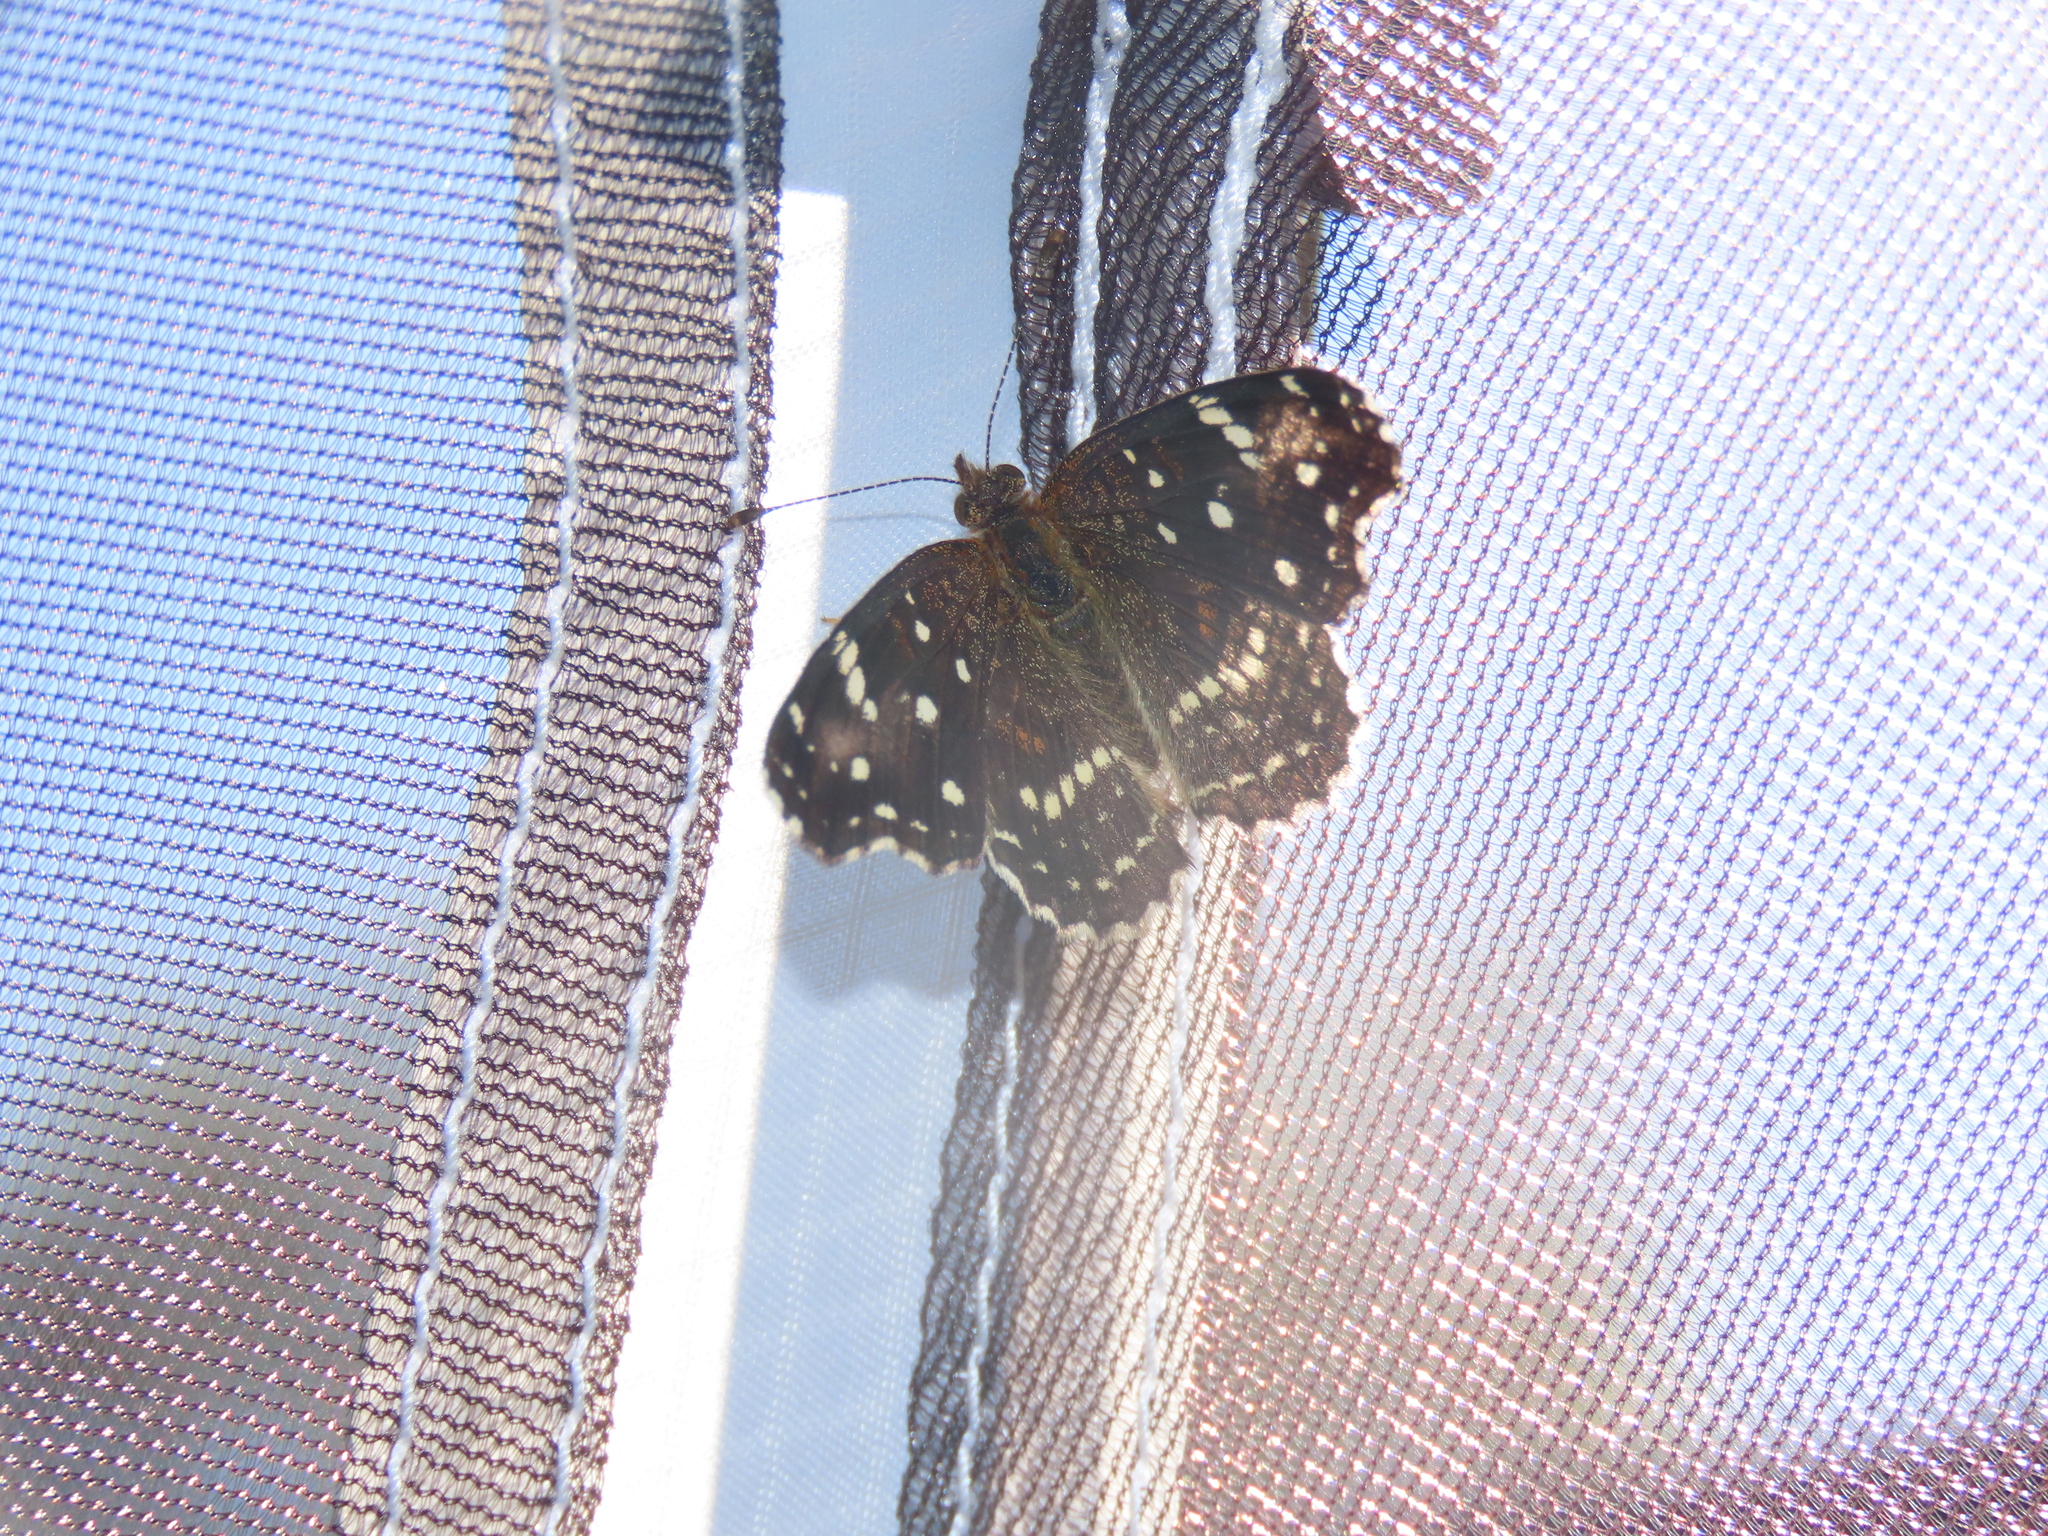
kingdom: Animalia
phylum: Arthropoda
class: Insecta
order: Lepidoptera
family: Nymphalidae
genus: Anthanassa
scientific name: Anthanassa texana
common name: Texan crescent
